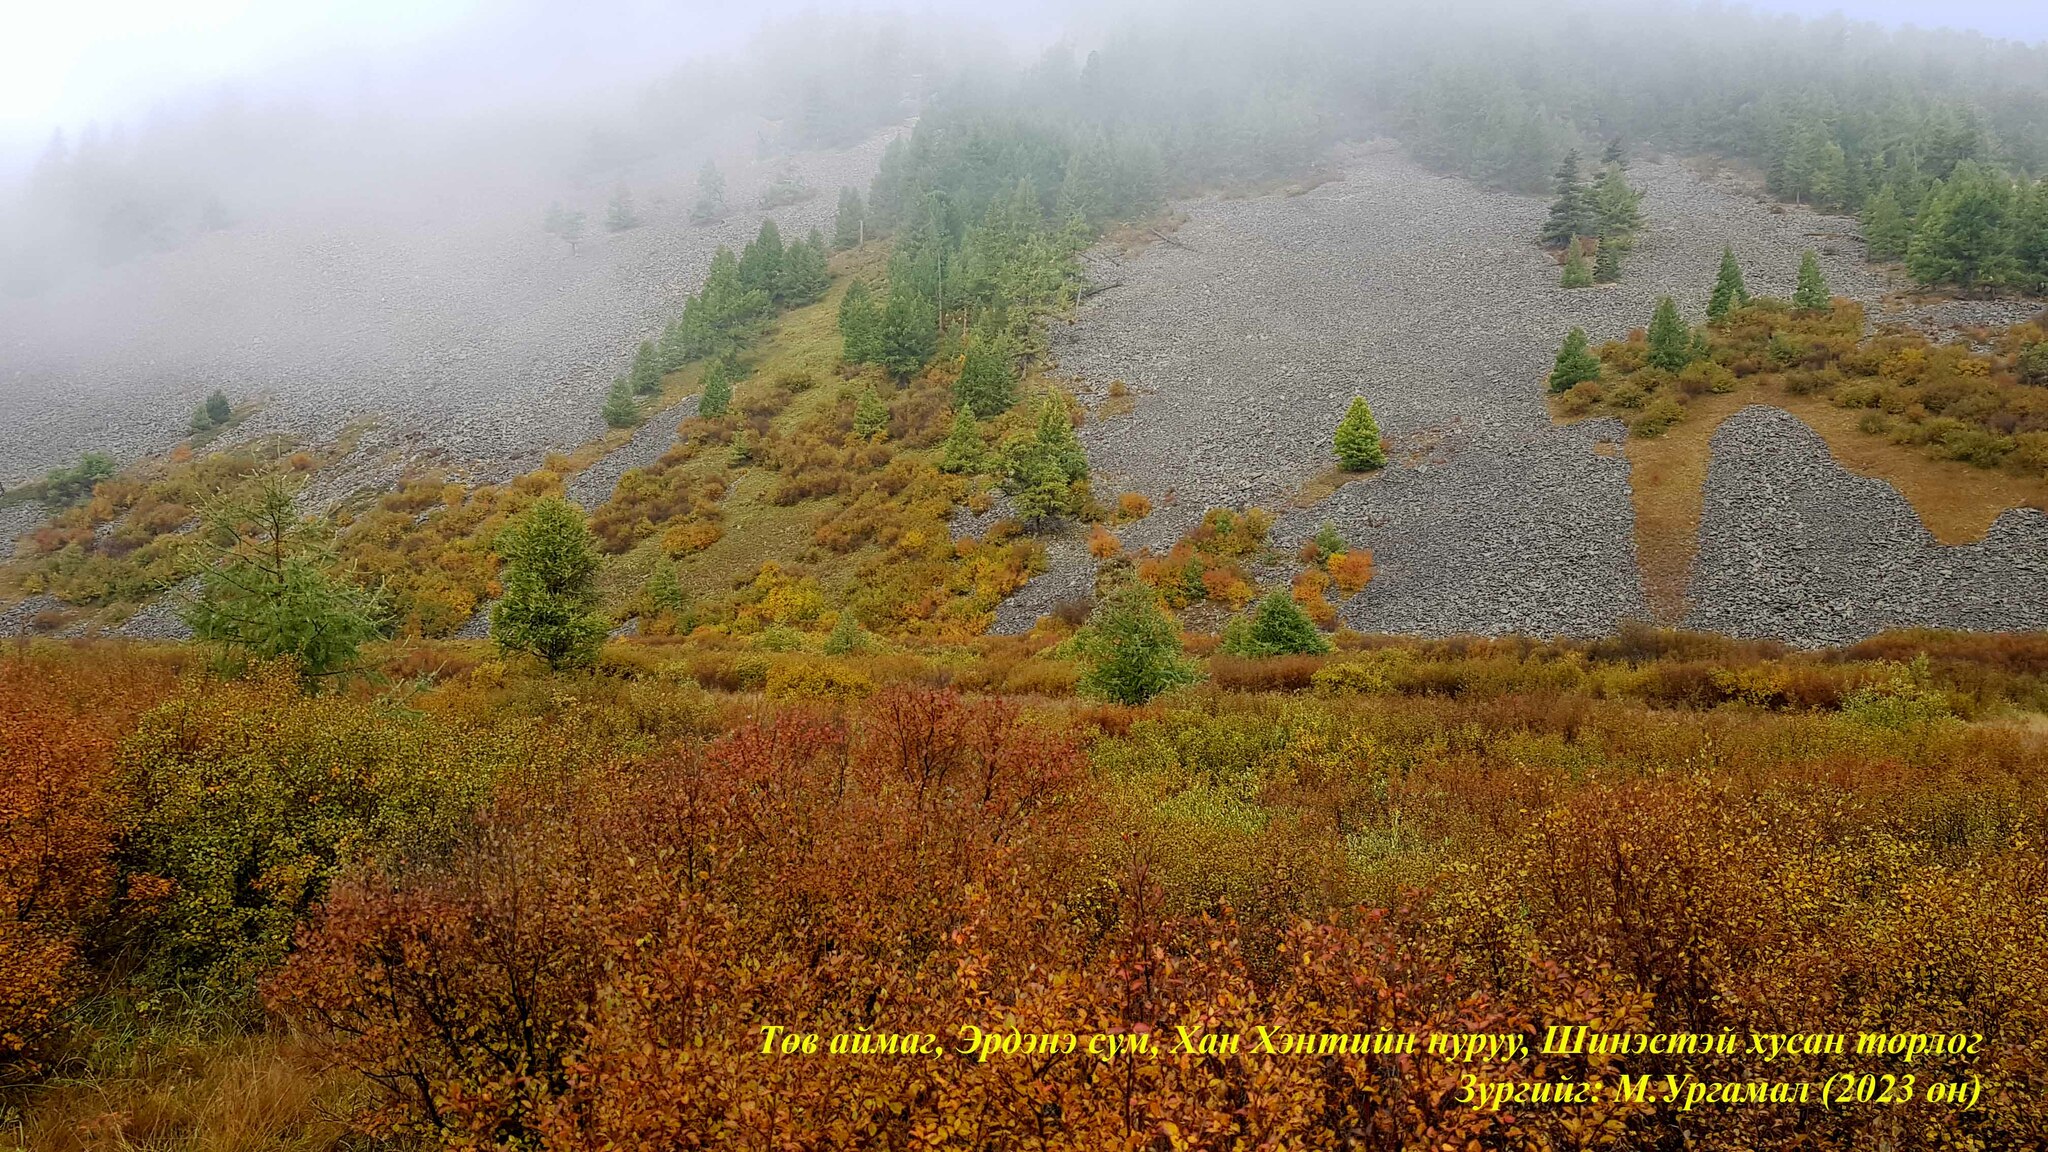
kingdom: Plantae
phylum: Tracheophyta
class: Magnoliopsida
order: Fagales
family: Betulaceae
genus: Betula
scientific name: Betula nana
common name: Arctic dwarf birch
